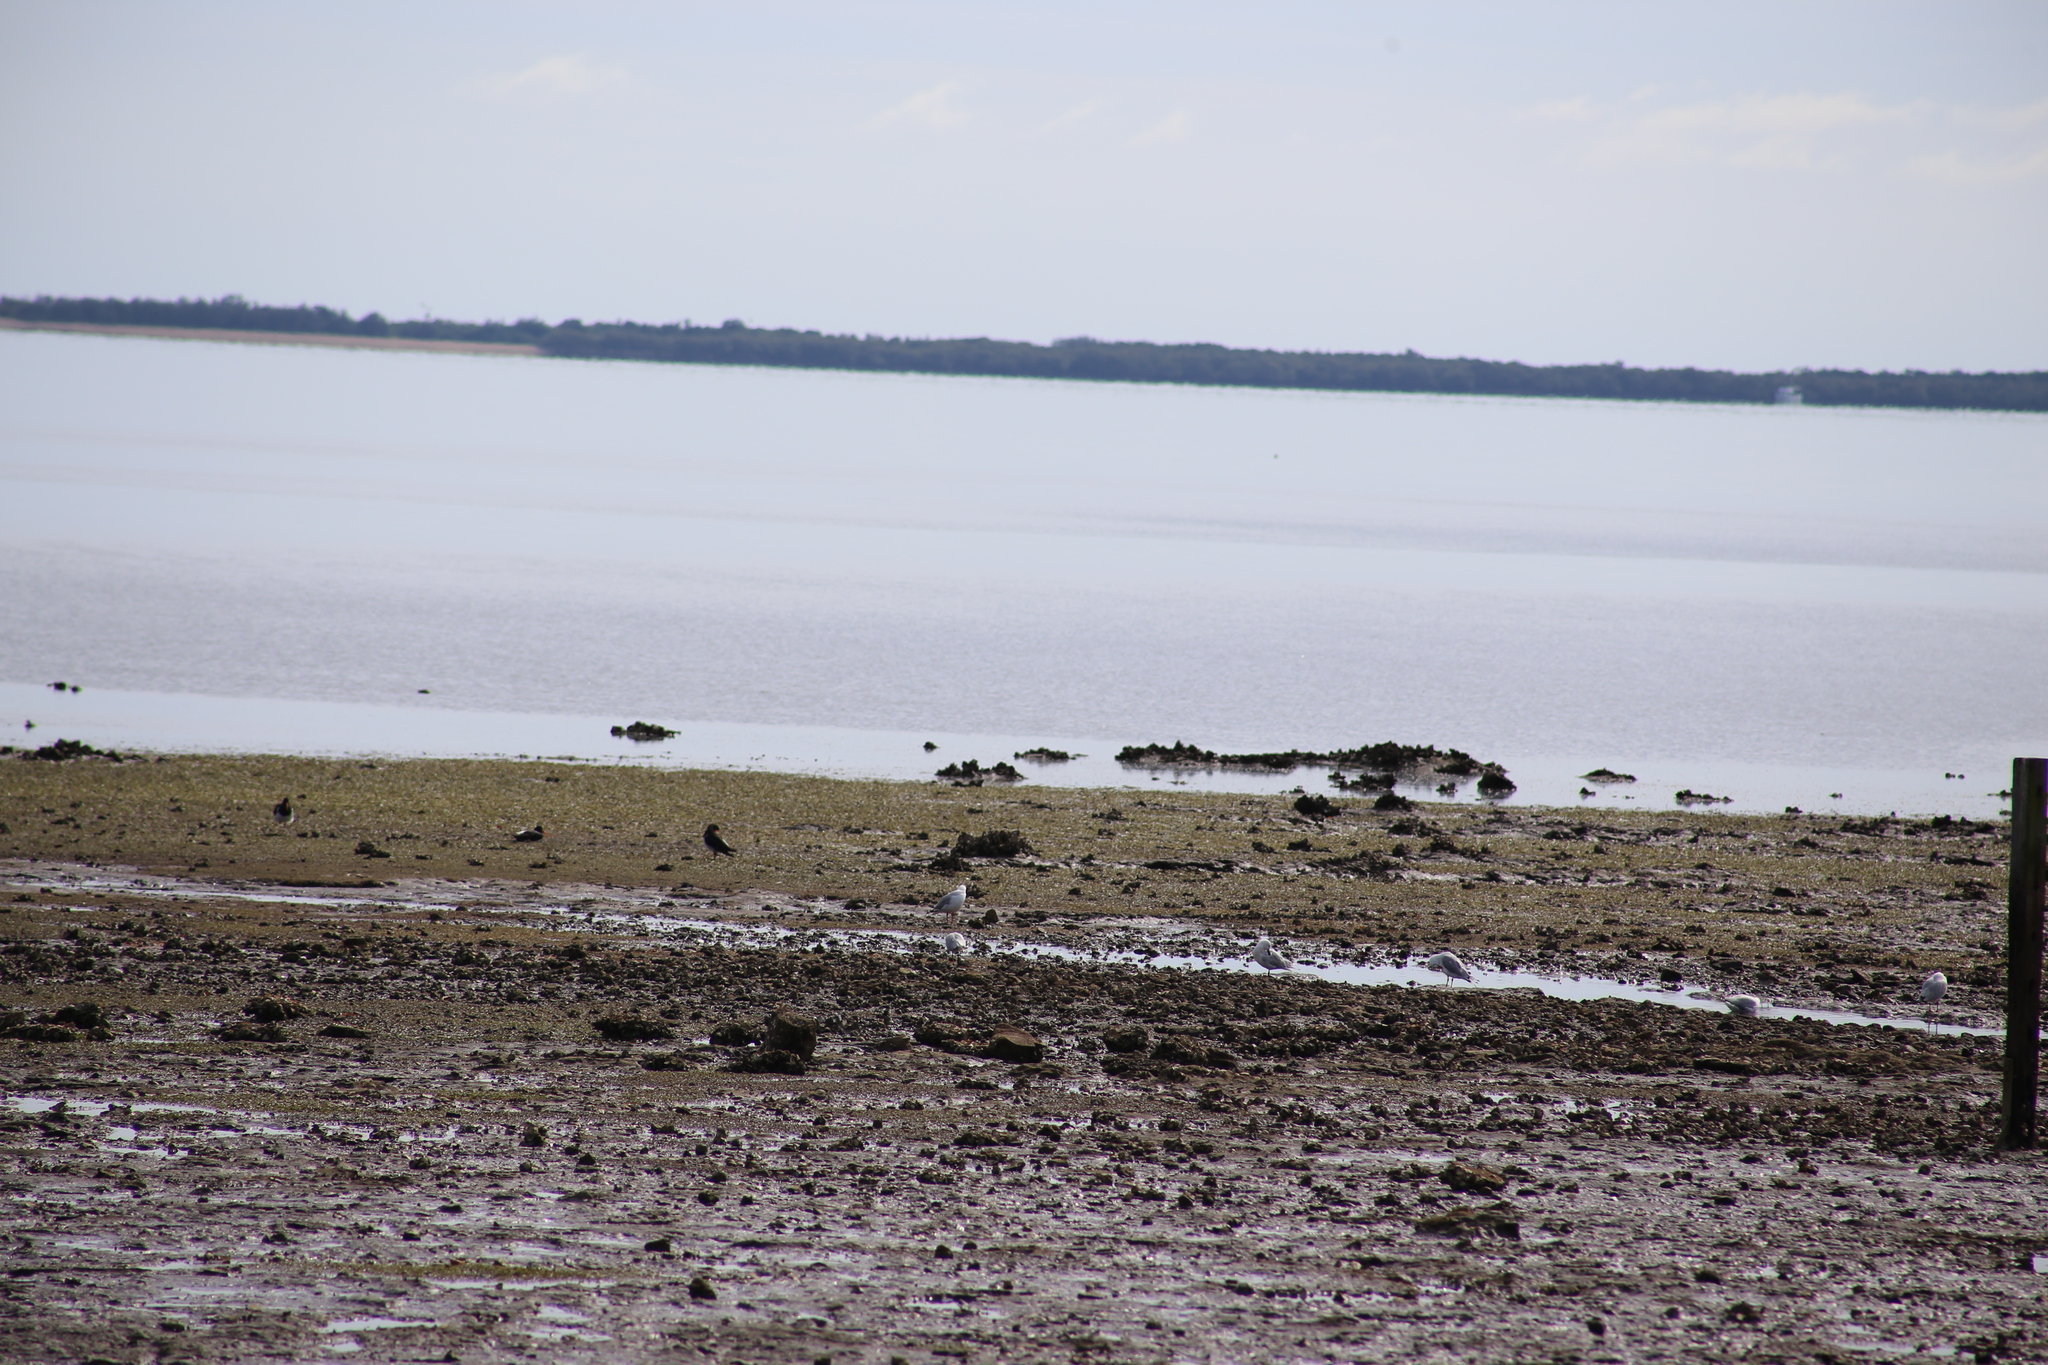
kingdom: Animalia
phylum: Chordata
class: Aves
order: Charadriiformes
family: Laridae
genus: Chroicocephalus
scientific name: Chroicocephalus novaehollandiae
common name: Silver gull
